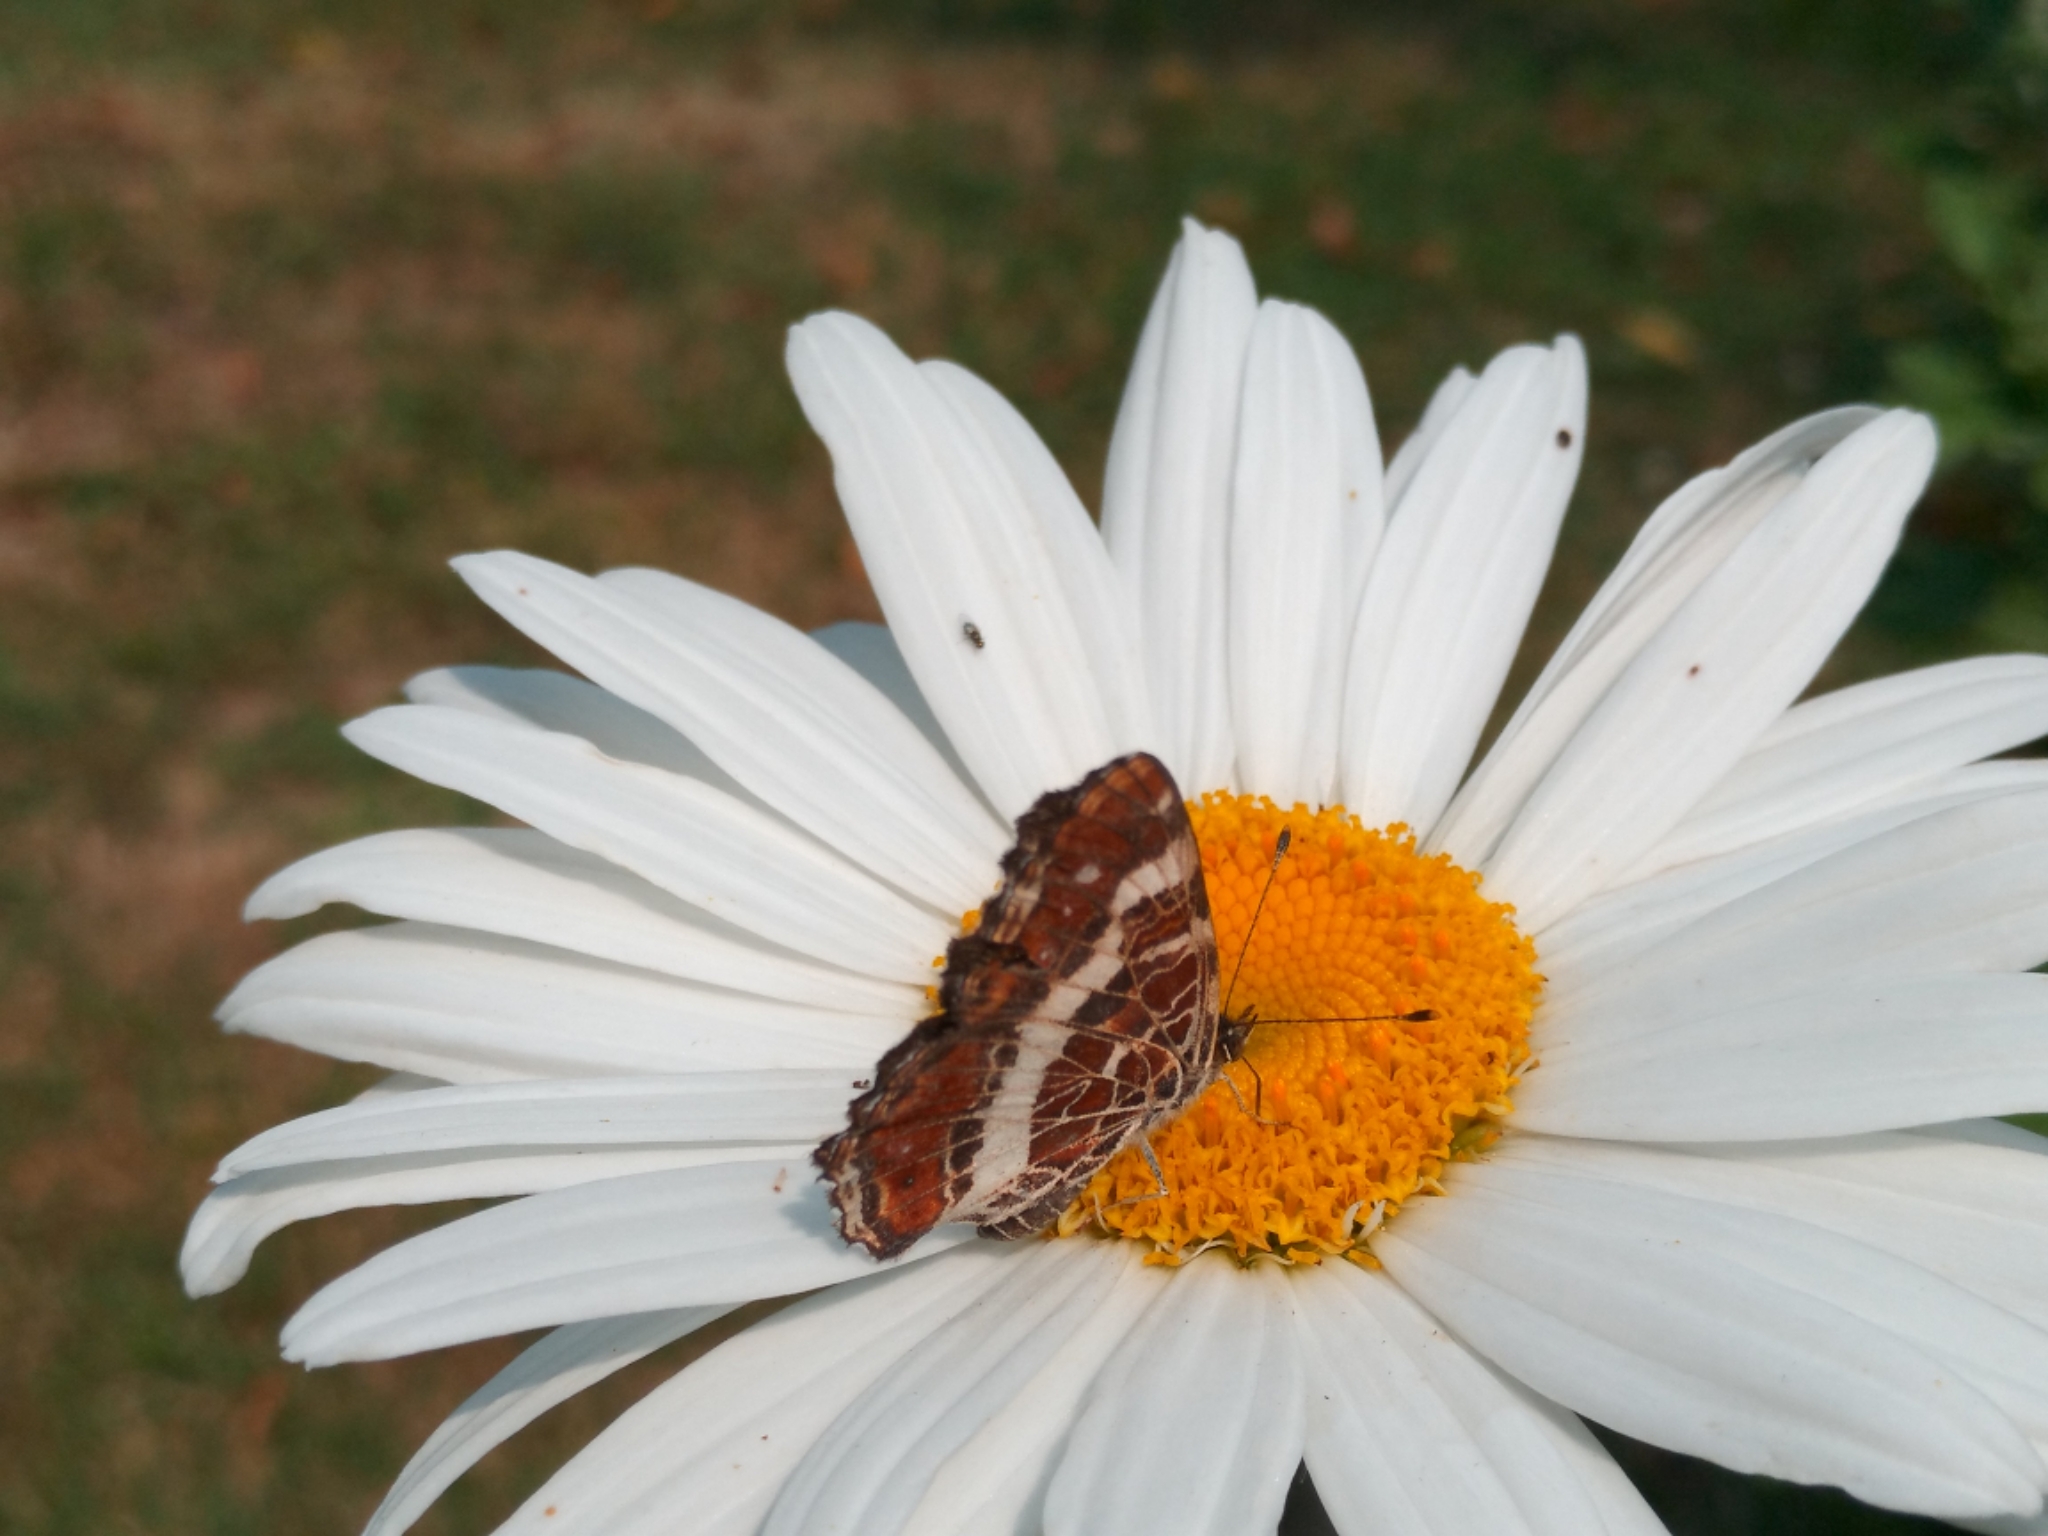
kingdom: Animalia
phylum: Arthropoda
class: Insecta
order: Lepidoptera
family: Nymphalidae
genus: Araschnia
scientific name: Araschnia levana
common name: Map butterfly
